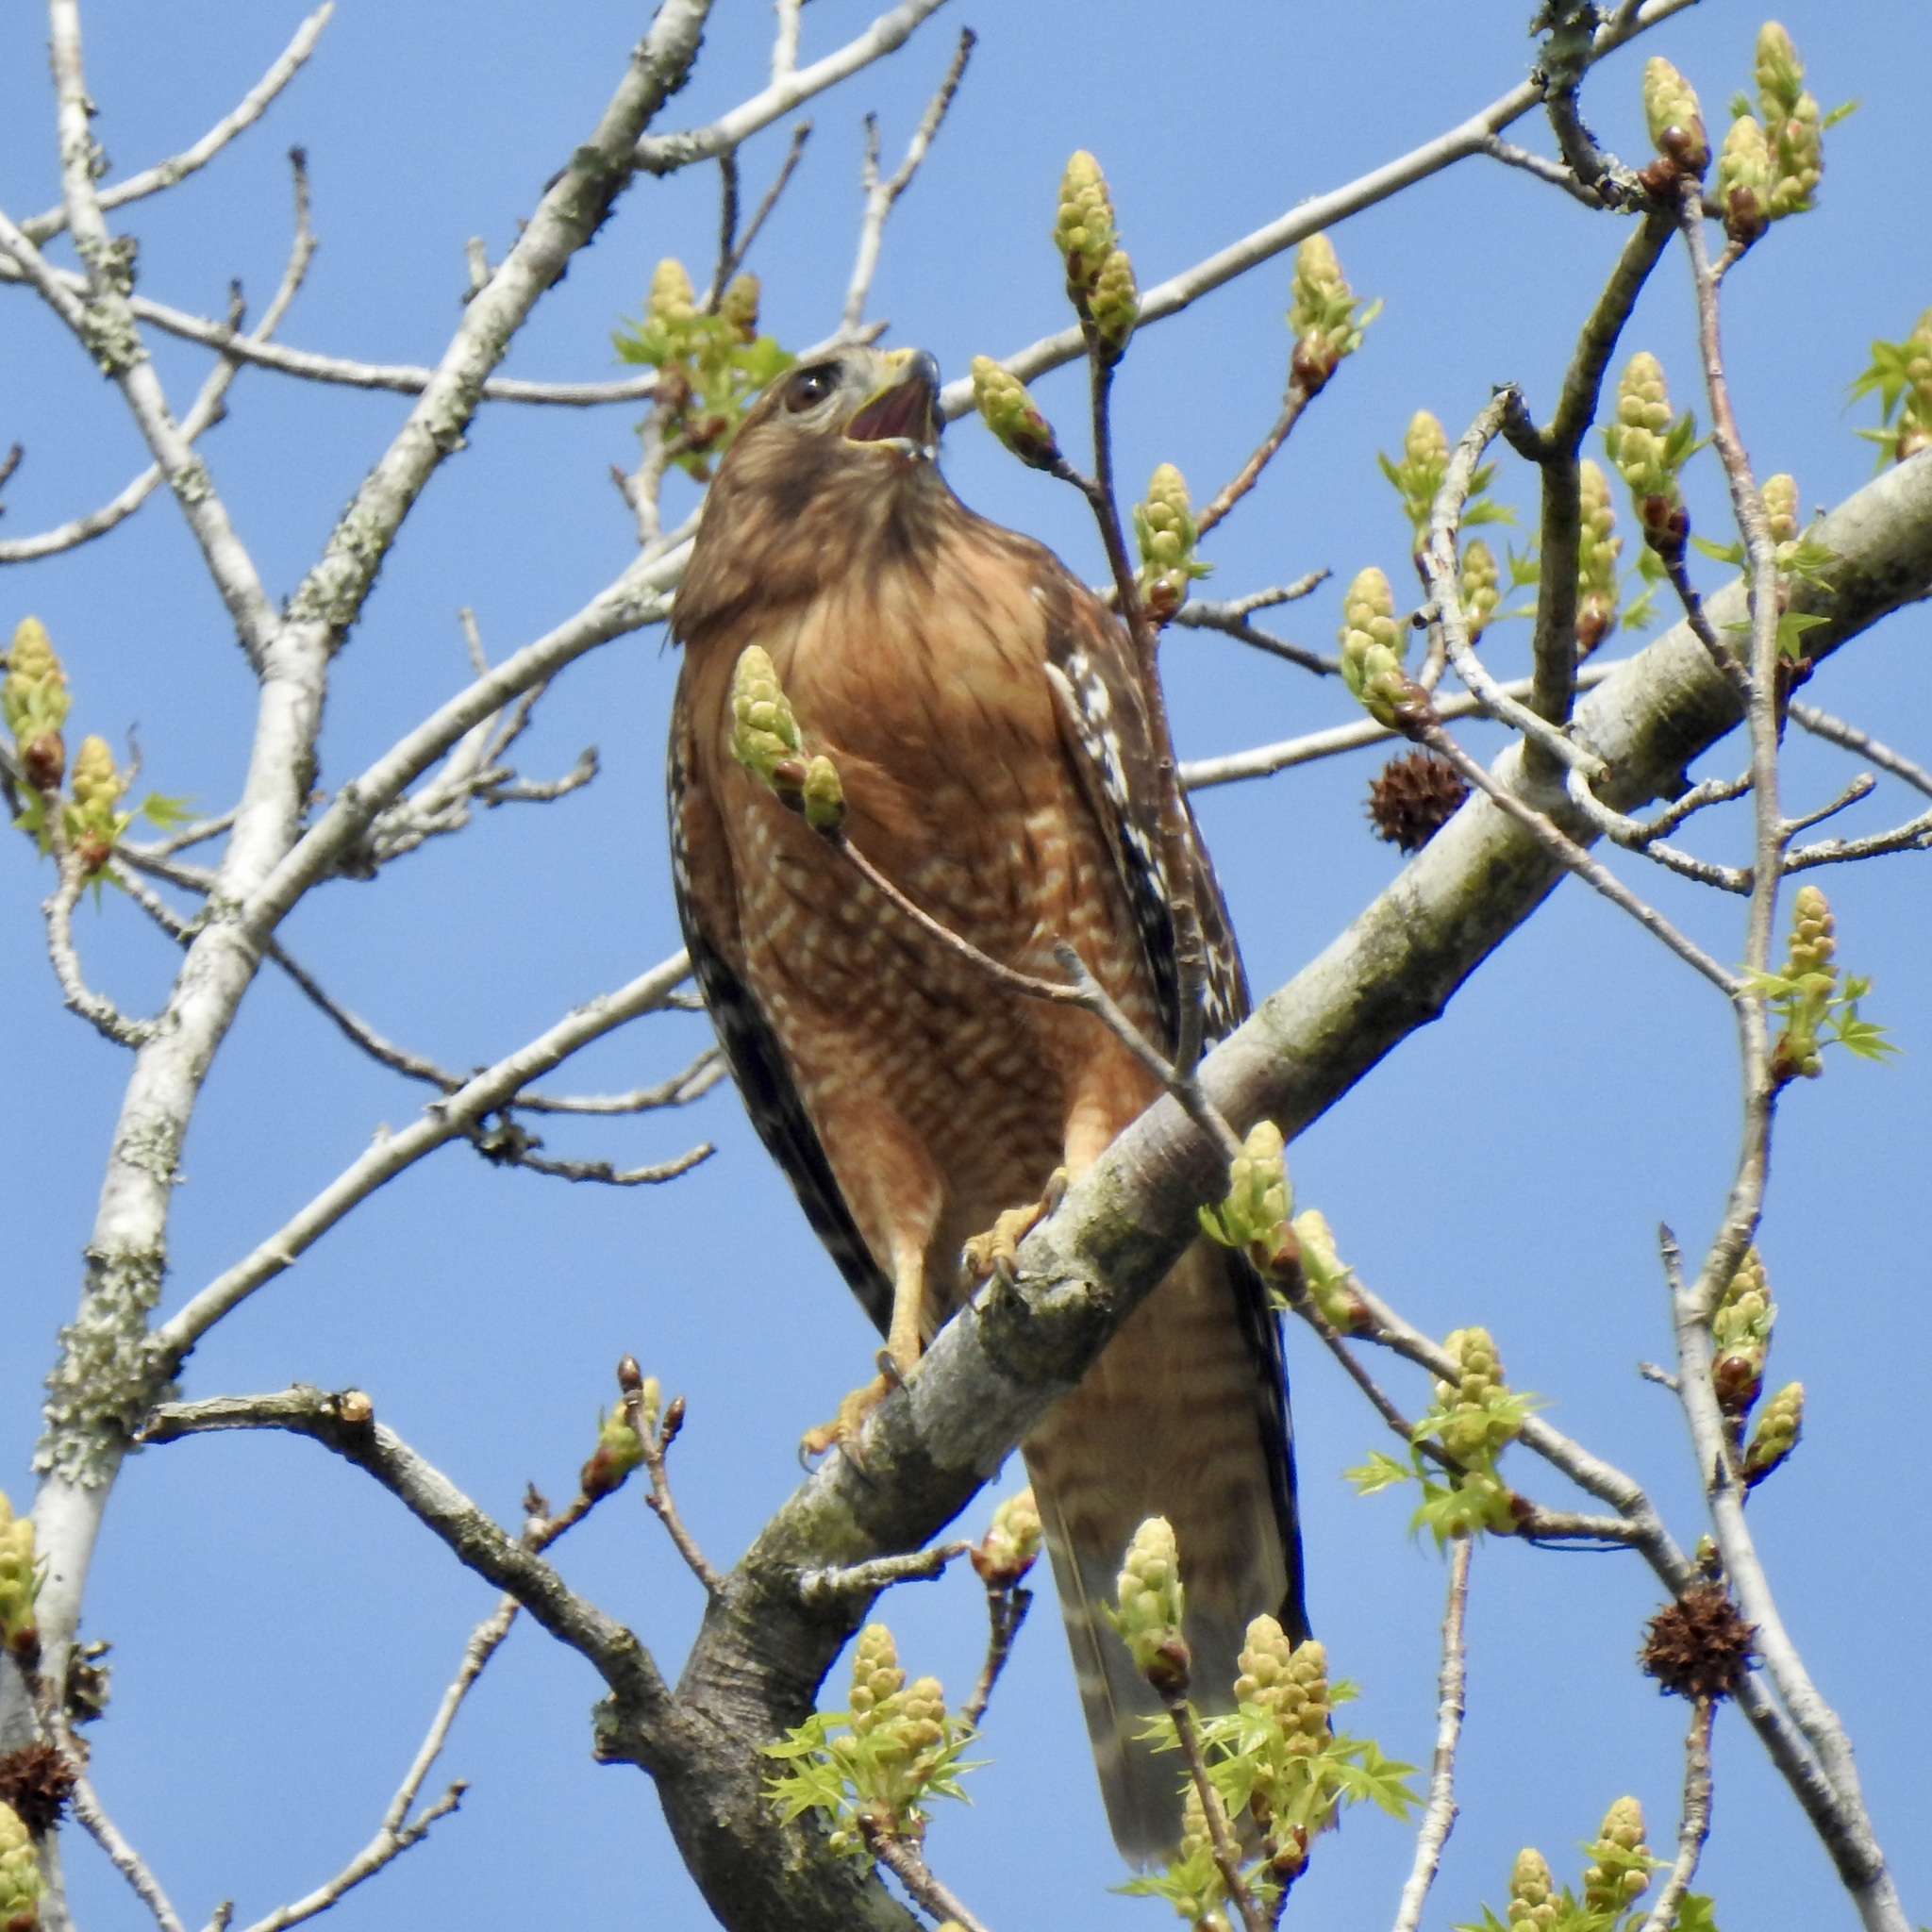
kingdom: Animalia
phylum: Chordata
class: Aves
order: Accipitriformes
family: Accipitridae
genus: Buteo
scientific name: Buteo lineatus
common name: Red-shouldered hawk
